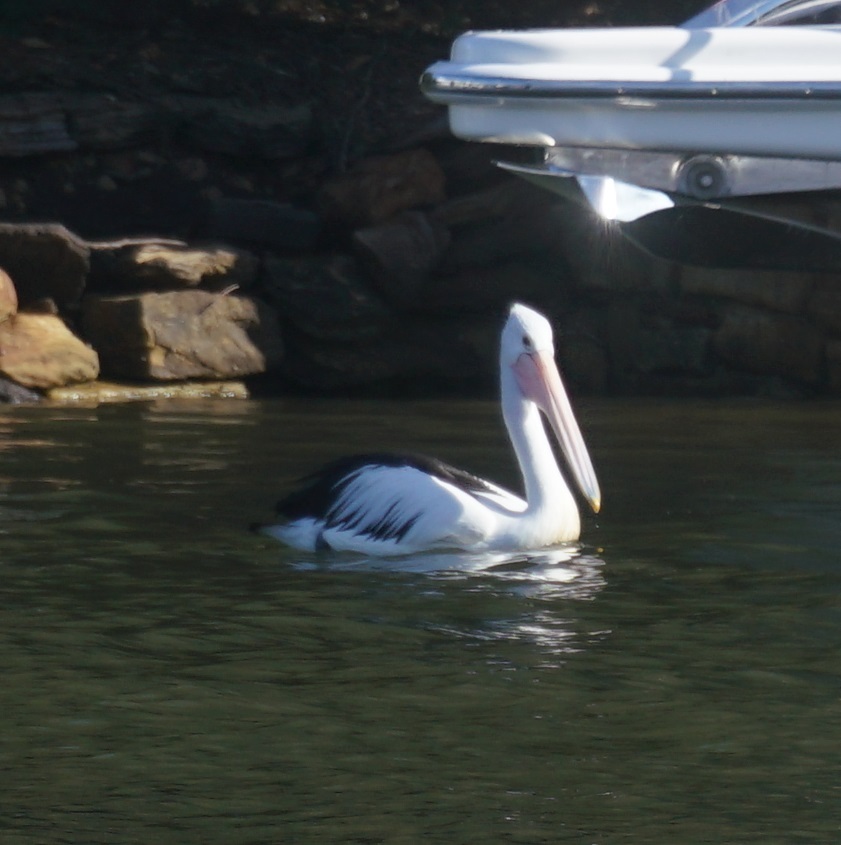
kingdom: Animalia
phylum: Chordata
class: Aves
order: Pelecaniformes
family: Pelecanidae
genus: Pelecanus
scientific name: Pelecanus conspicillatus
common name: Australian pelican
